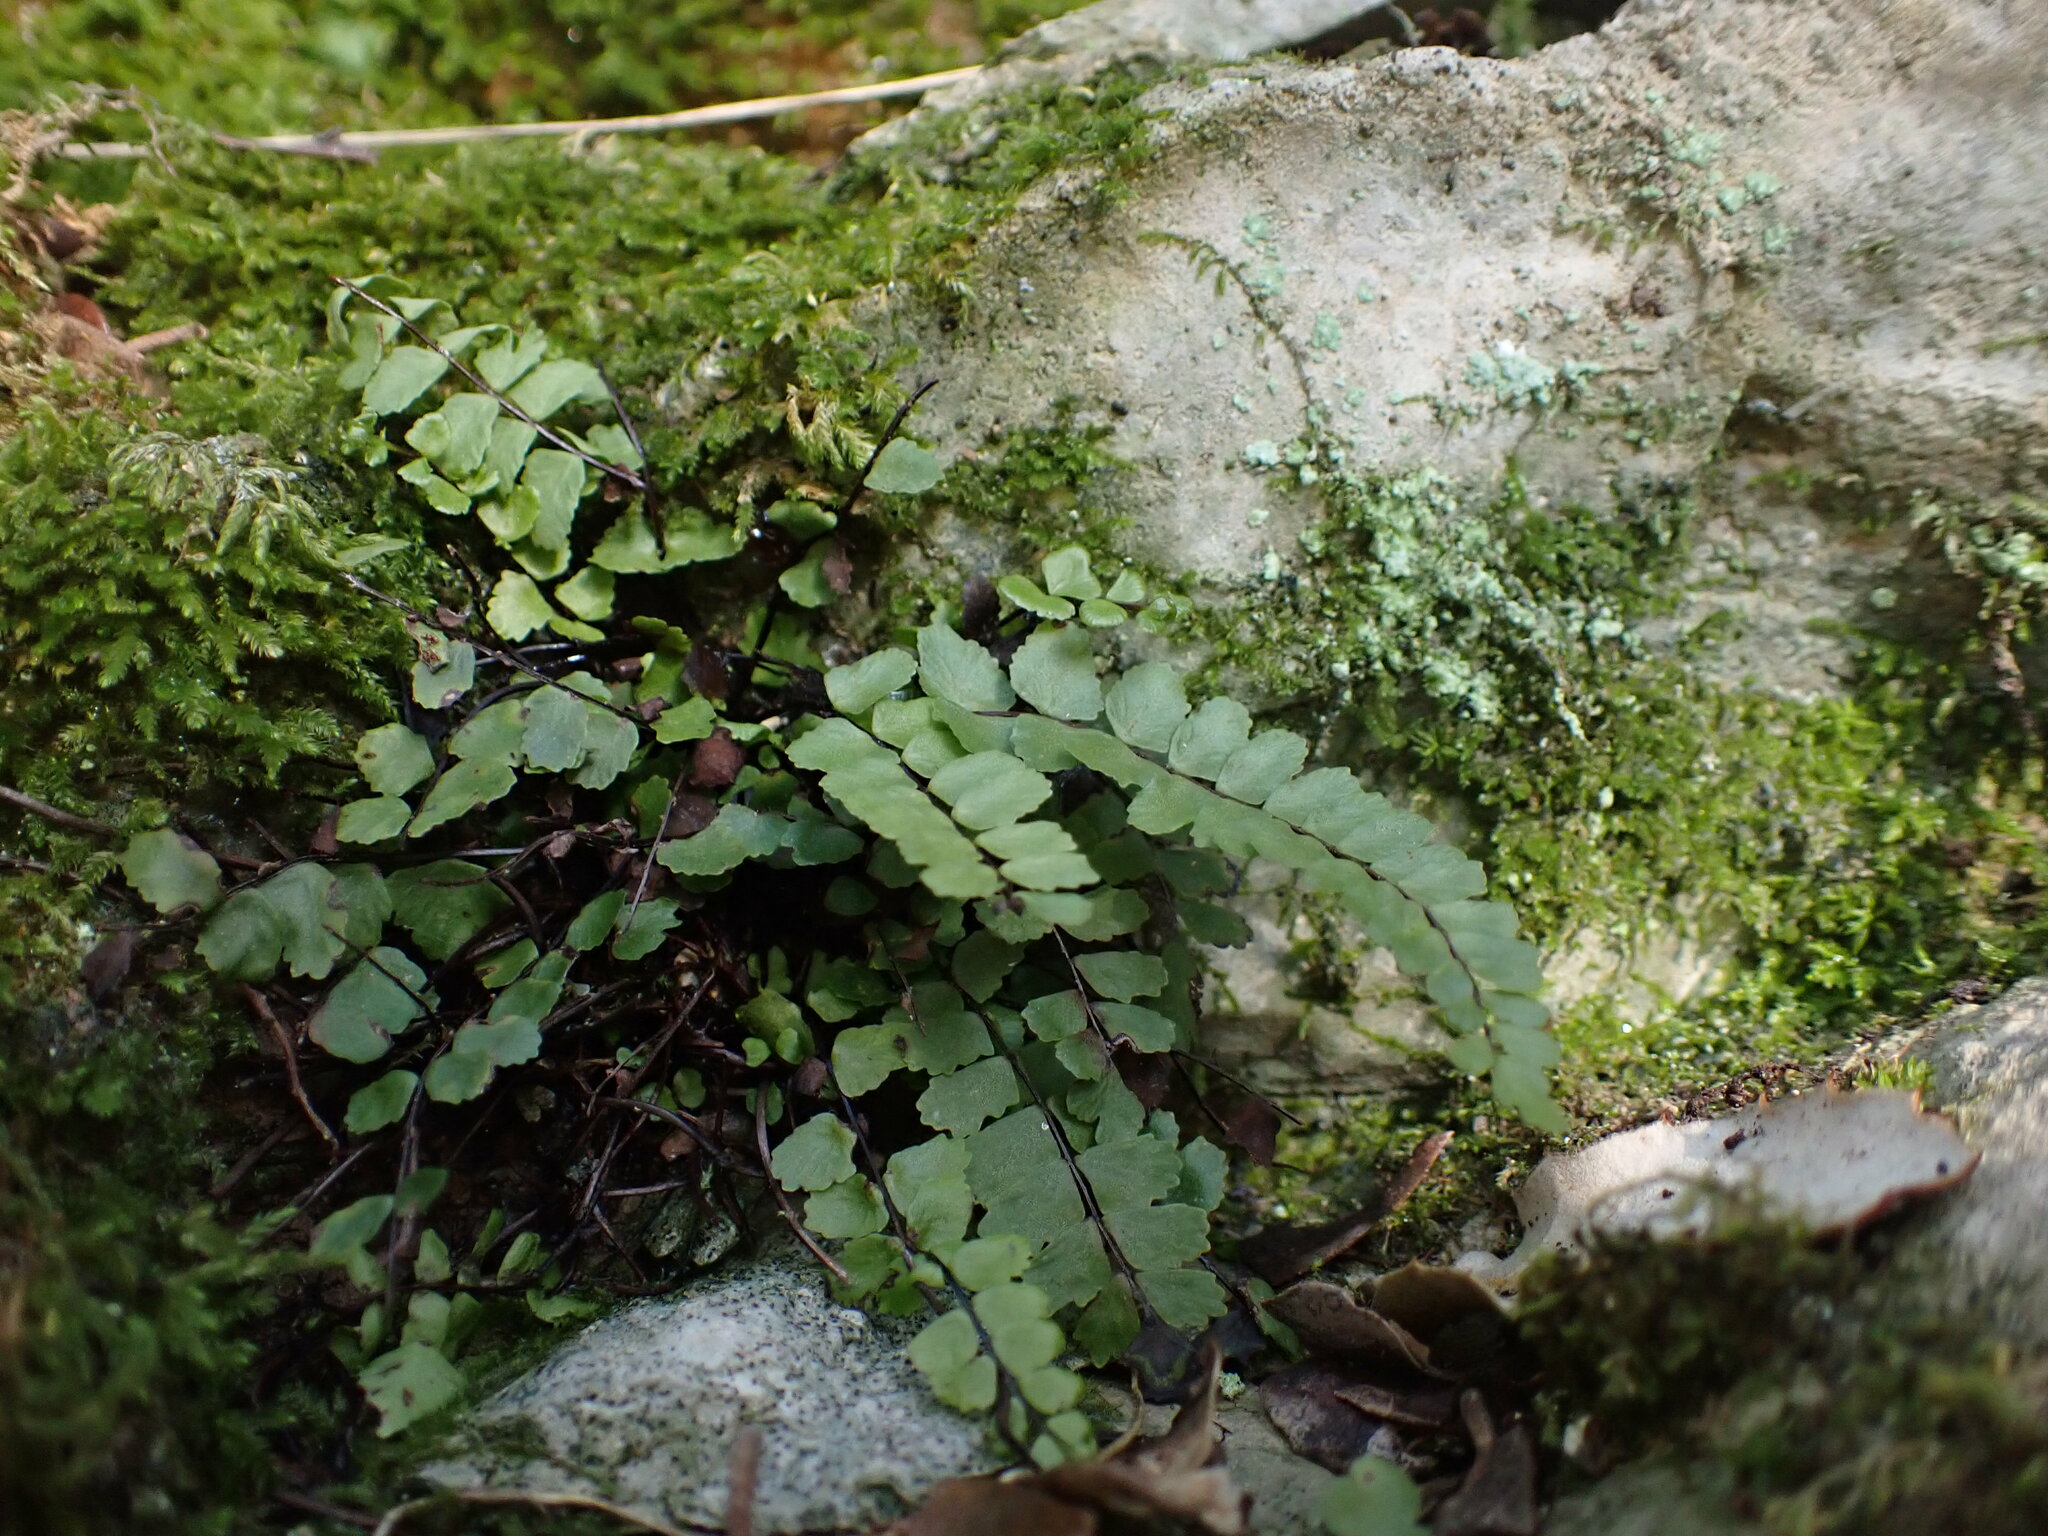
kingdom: Plantae
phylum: Tracheophyta
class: Polypodiopsida
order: Polypodiales
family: Aspleniaceae
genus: Asplenium
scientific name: Asplenium trichomanes
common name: Maidenhair spleenwort
